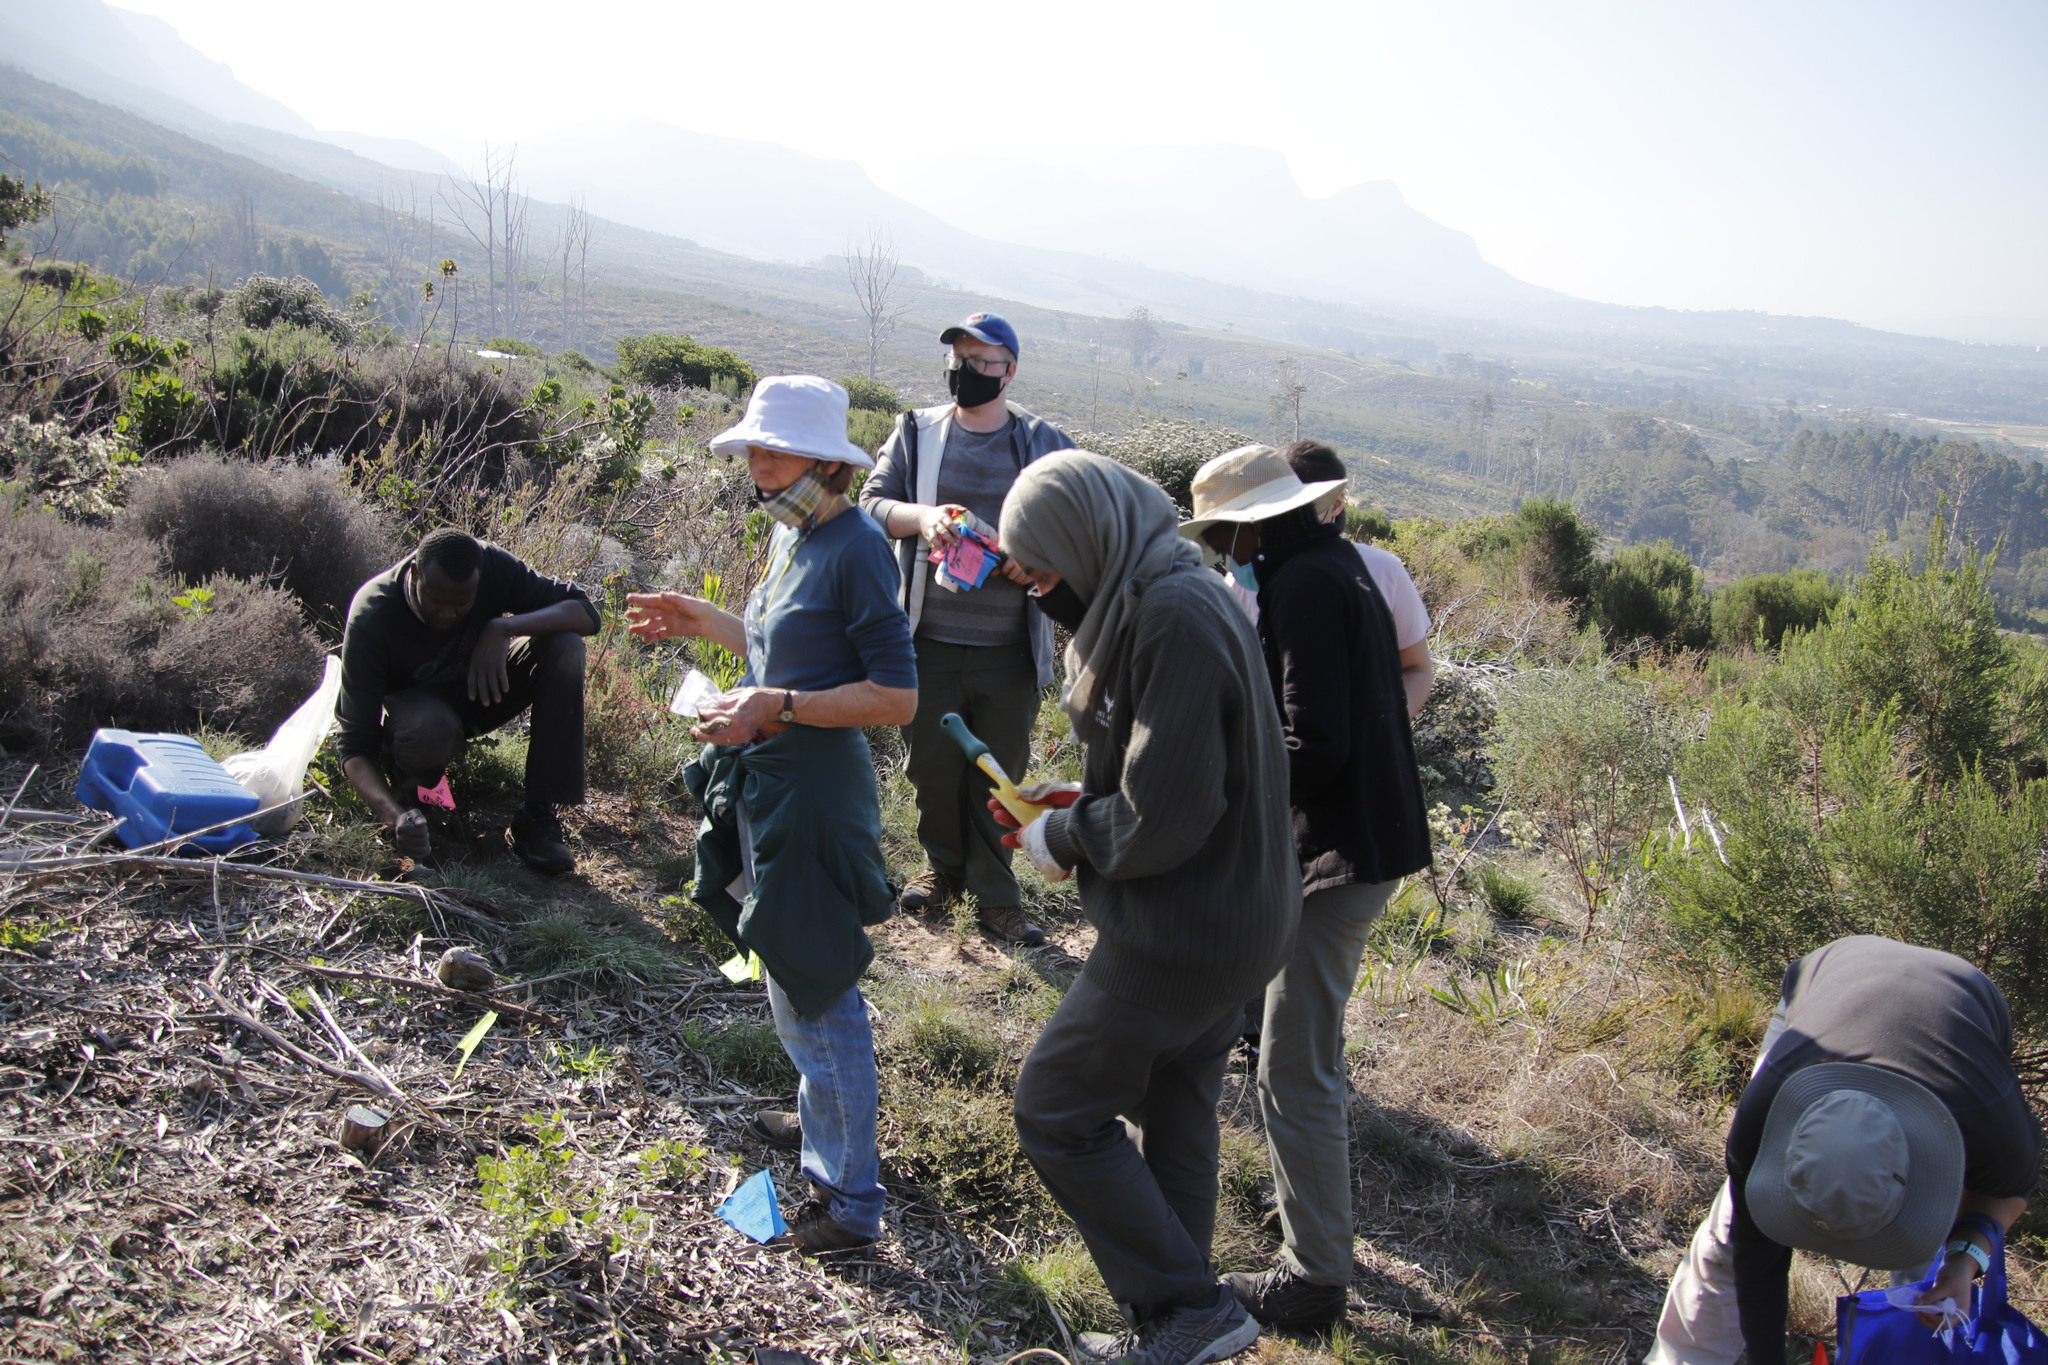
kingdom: Plantae
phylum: Tracheophyta
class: Magnoliopsida
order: Malvales
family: Thymelaeaceae
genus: Passerina
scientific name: Passerina corymbosa
